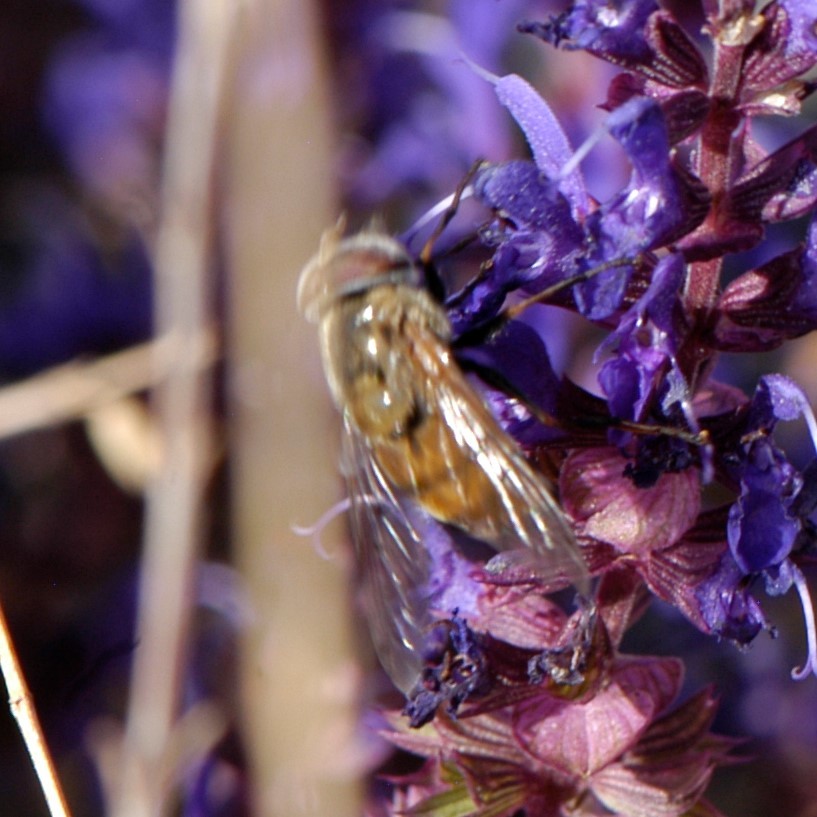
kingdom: Animalia
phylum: Arthropoda
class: Insecta
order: Diptera
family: Syrphidae
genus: Copestylum
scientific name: Copestylum haagii
